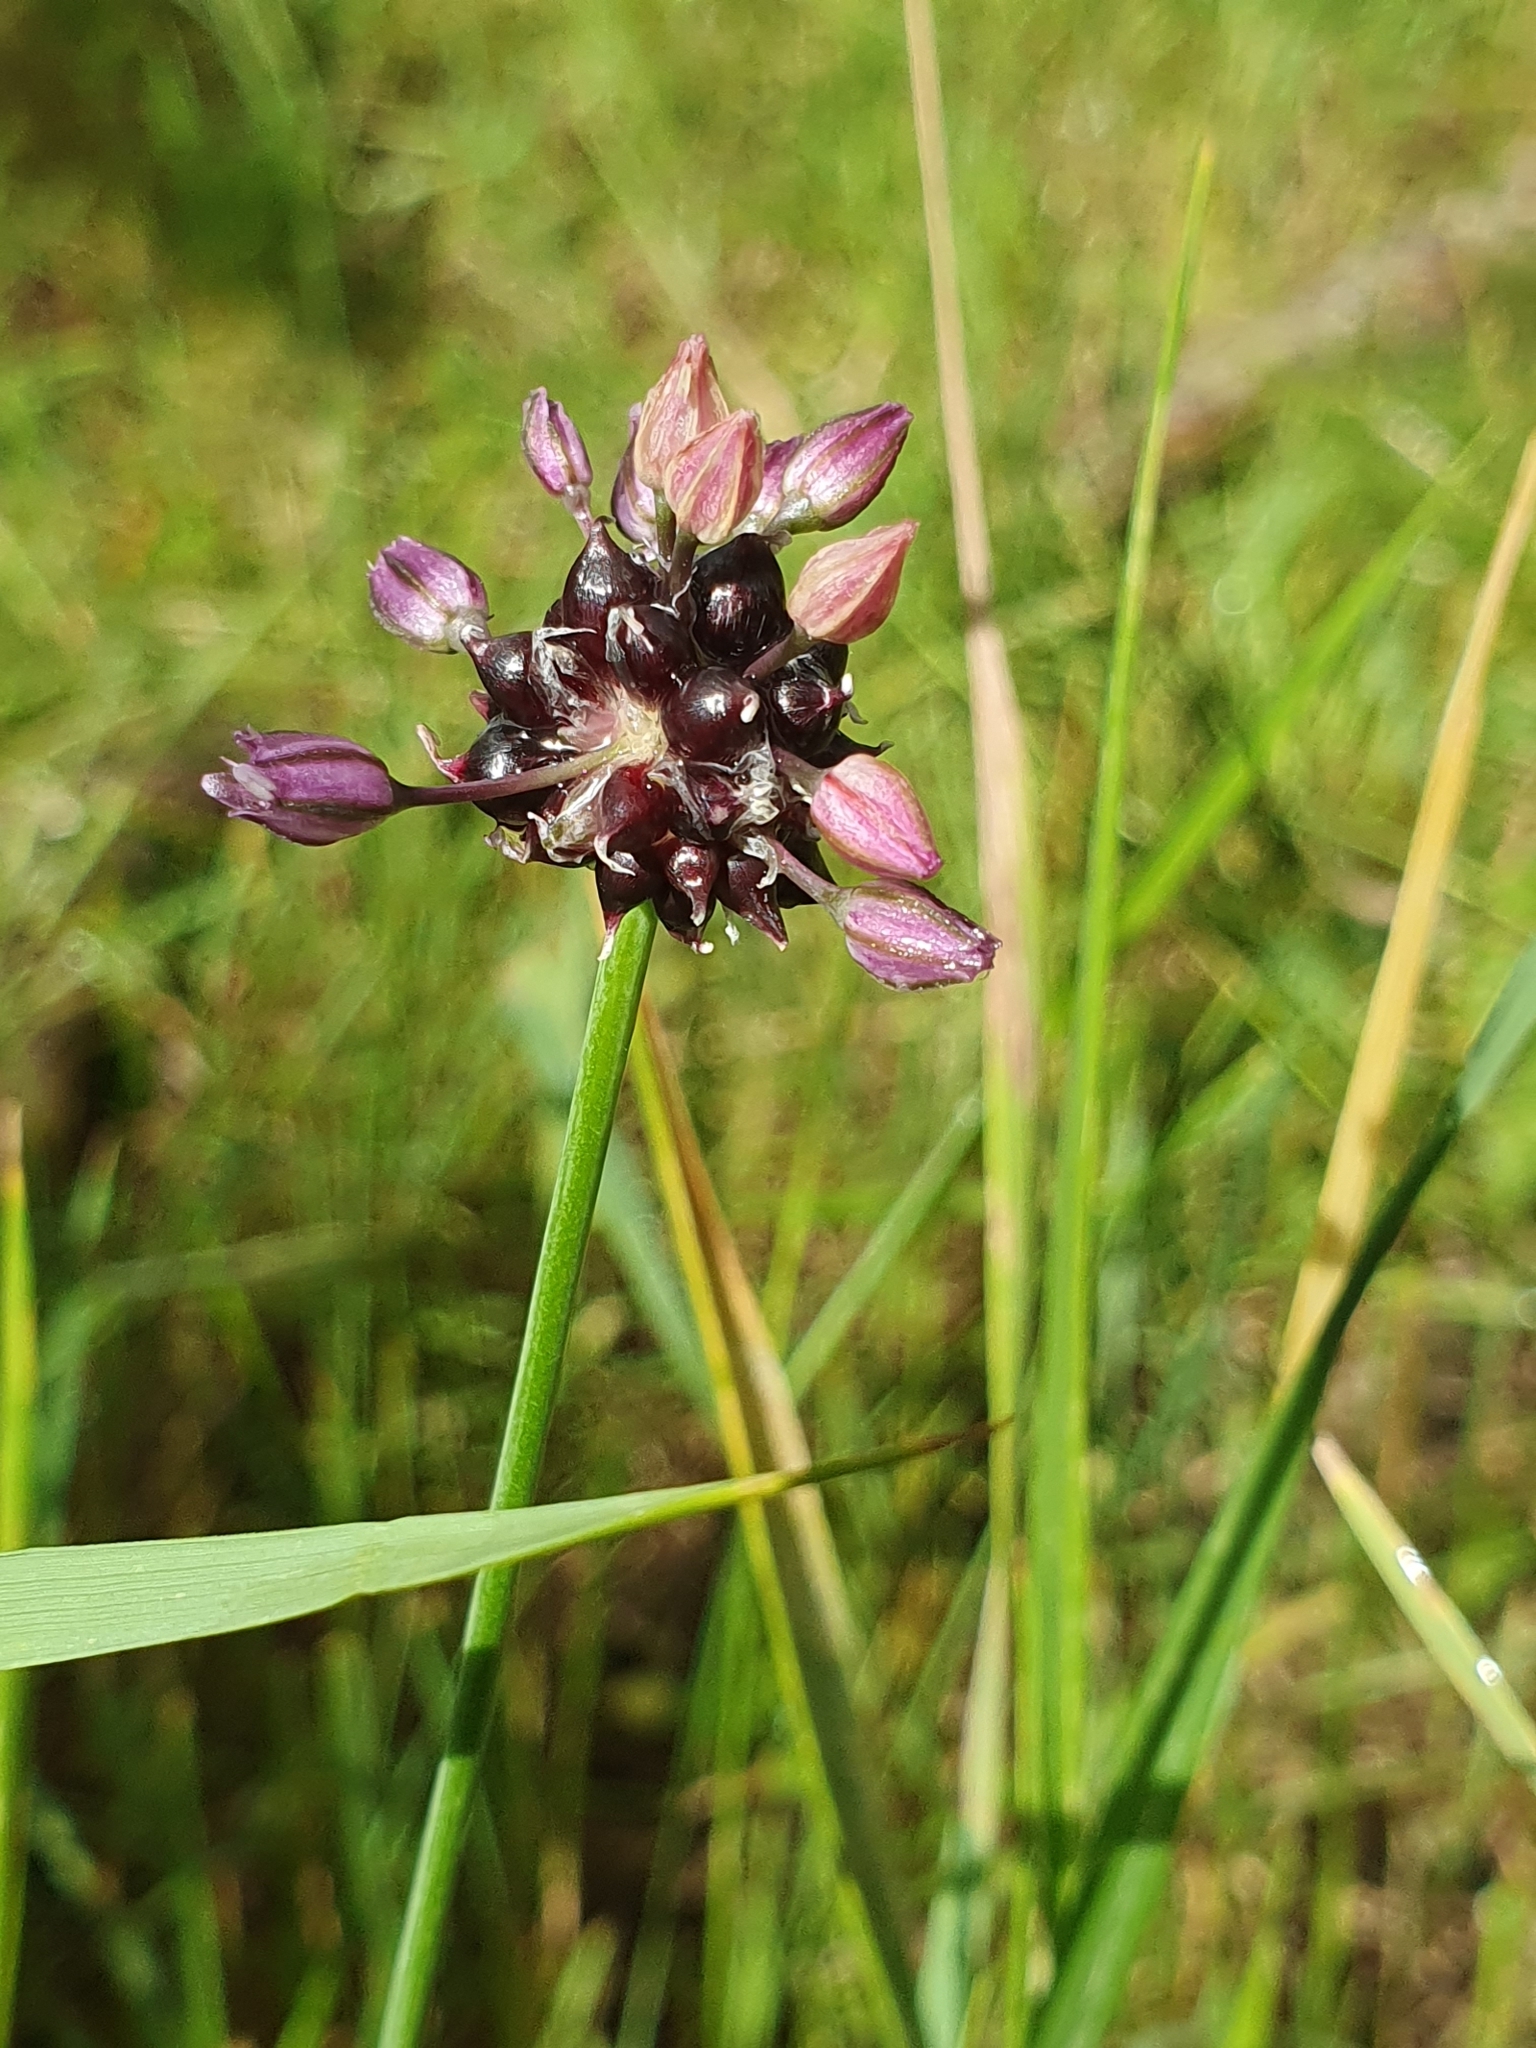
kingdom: Plantae
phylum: Tracheophyta
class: Liliopsida
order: Asparagales
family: Amaryllidaceae
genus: Allium
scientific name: Allium scorodoprasum
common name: Sand leek
